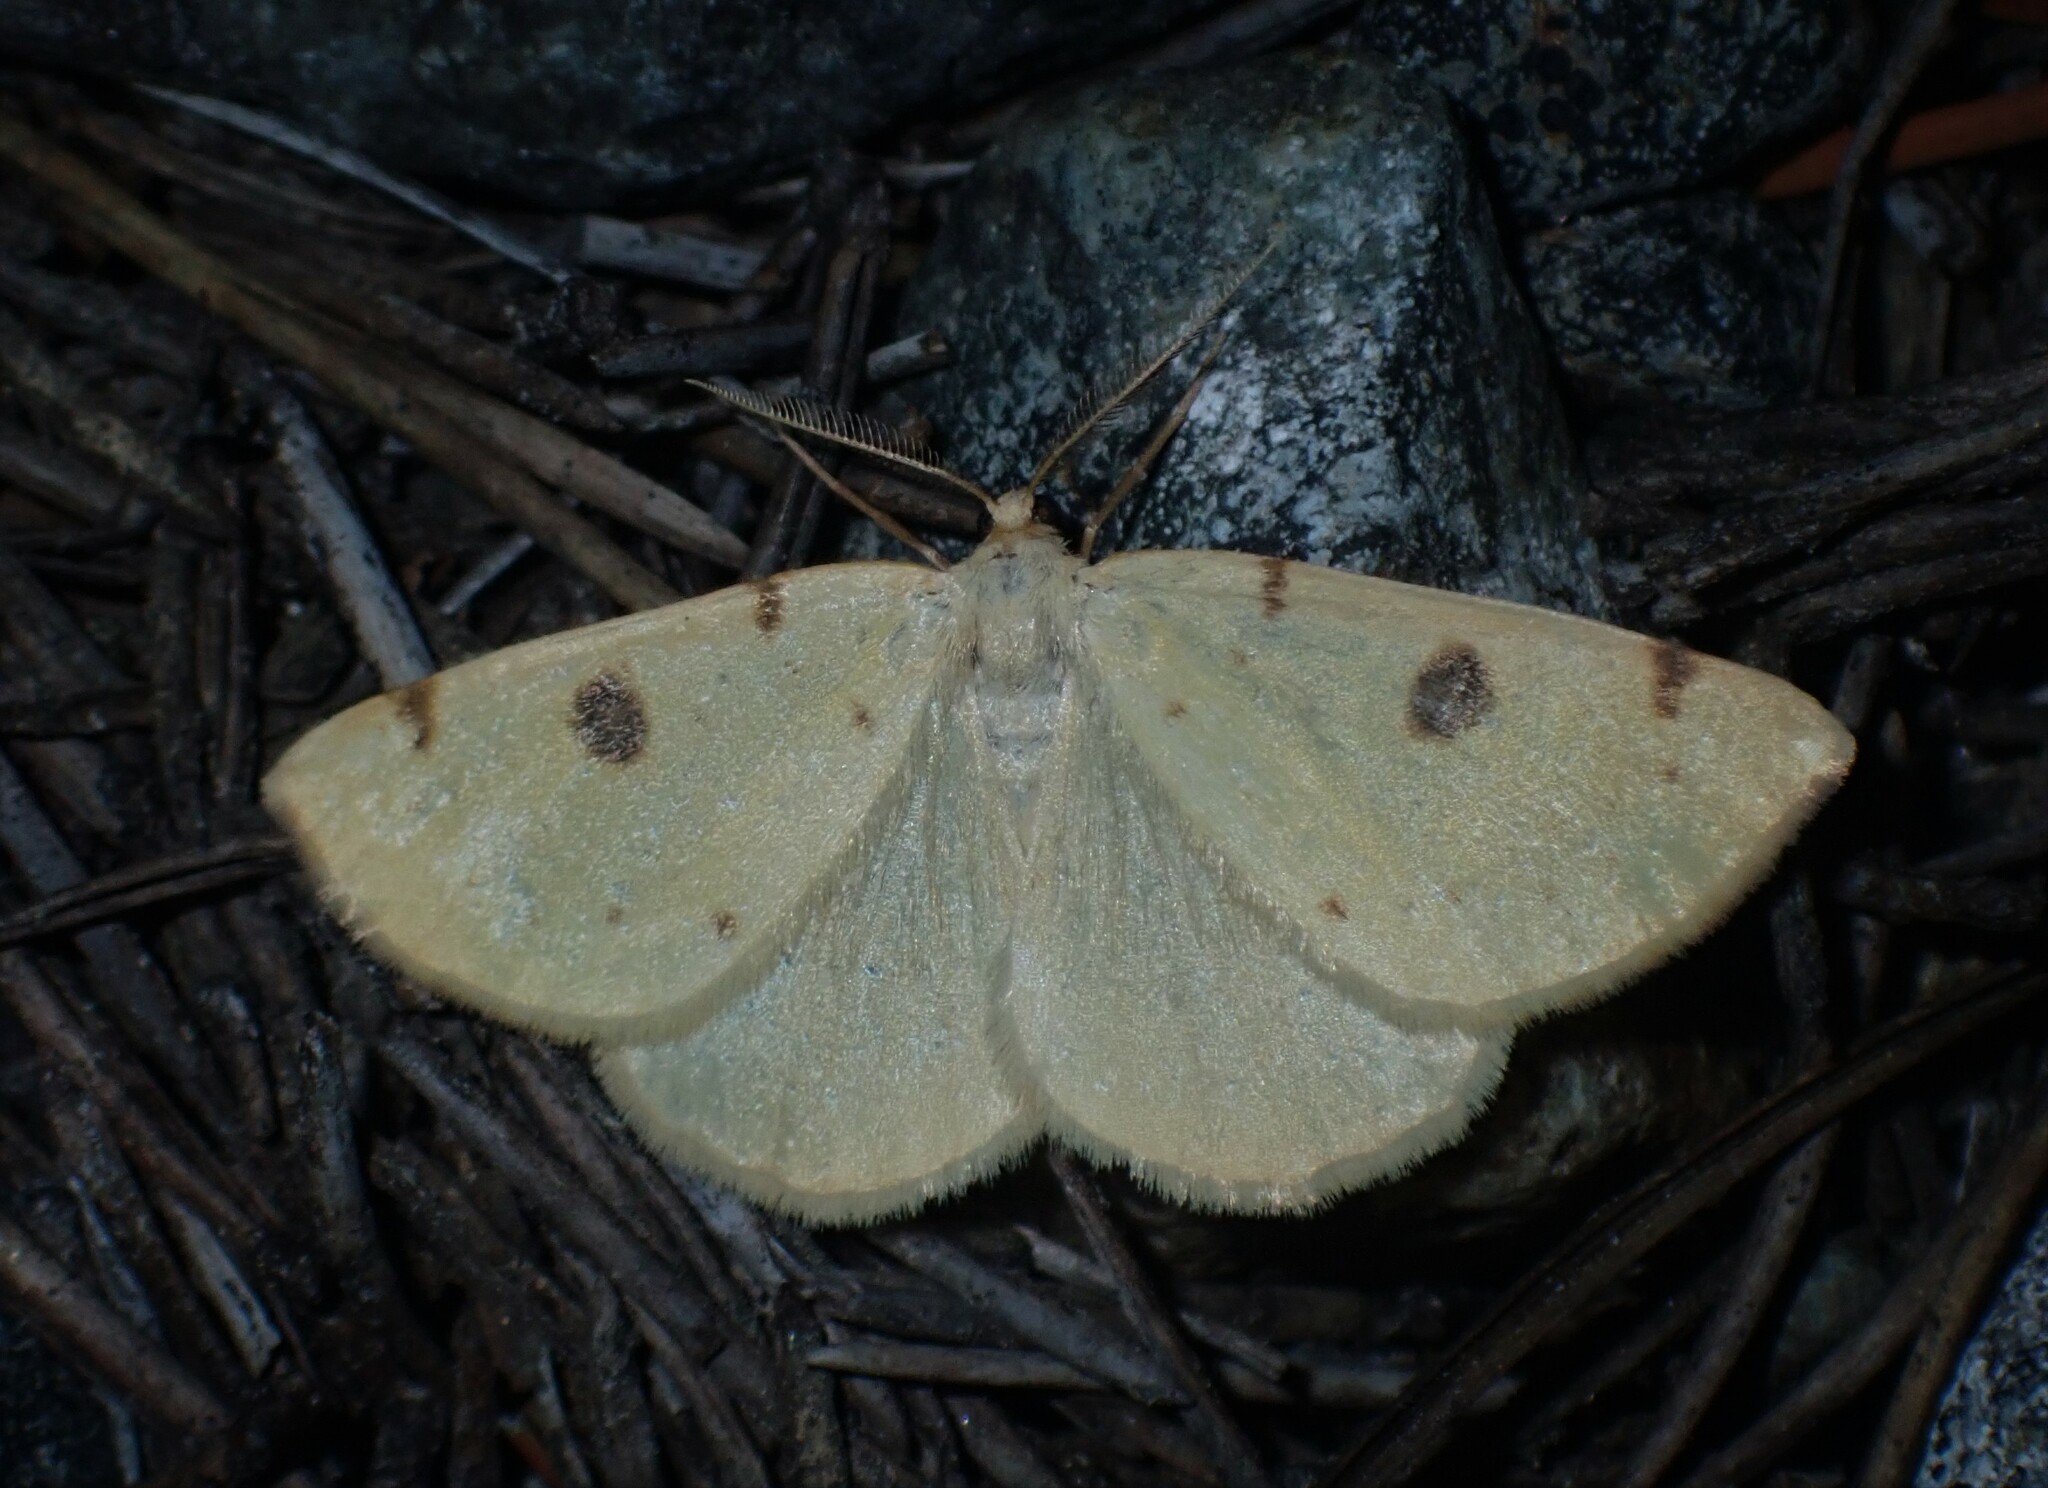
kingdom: Animalia
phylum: Arthropoda
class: Insecta
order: Lepidoptera
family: Geometridae
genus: Hesperumia
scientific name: Hesperumia sulphuraria
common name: Sulphur moth
